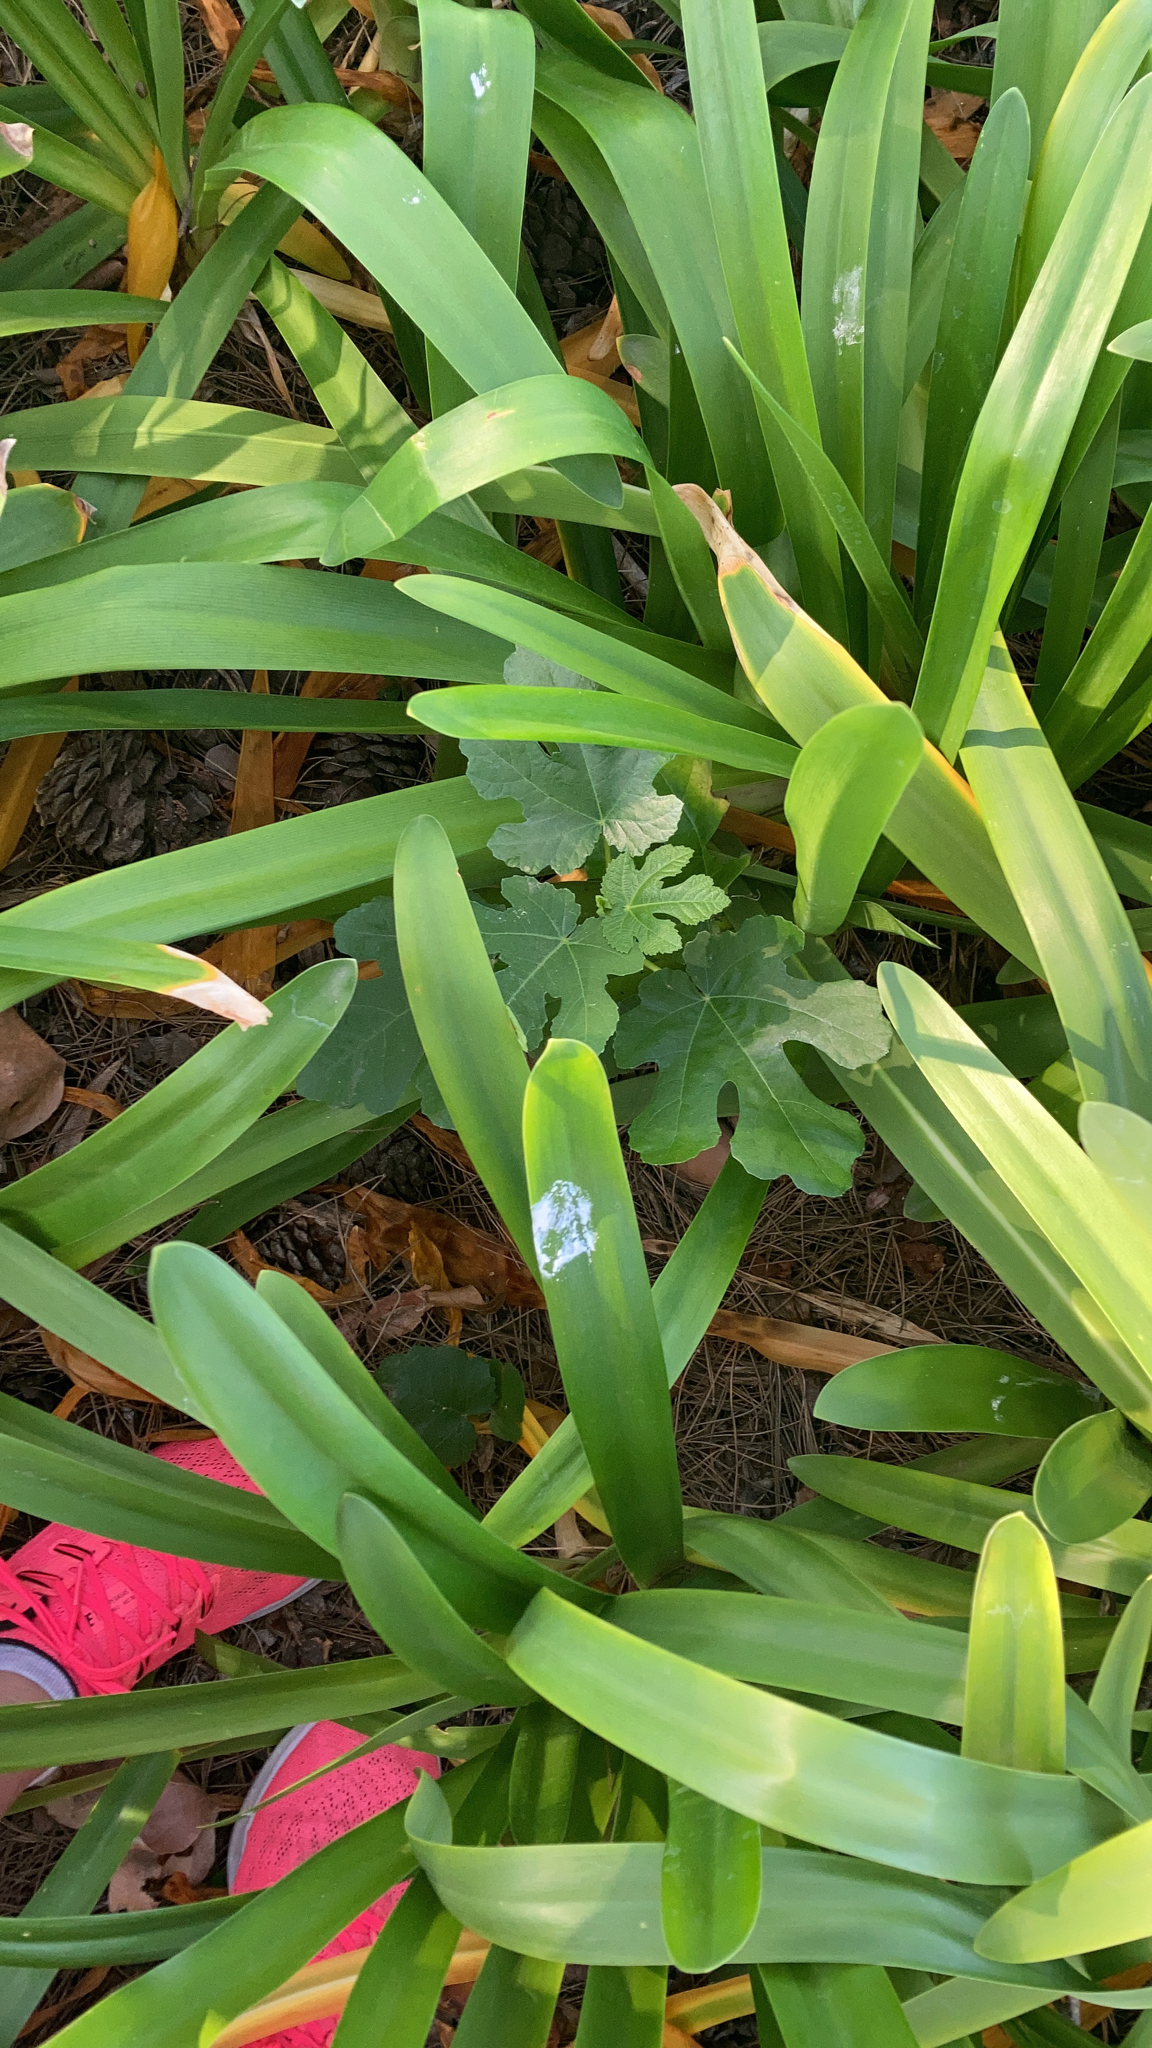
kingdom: Plantae
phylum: Tracheophyta
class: Magnoliopsida
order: Rosales
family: Moraceae
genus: Ficus
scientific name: Ficus carica
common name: Fig
